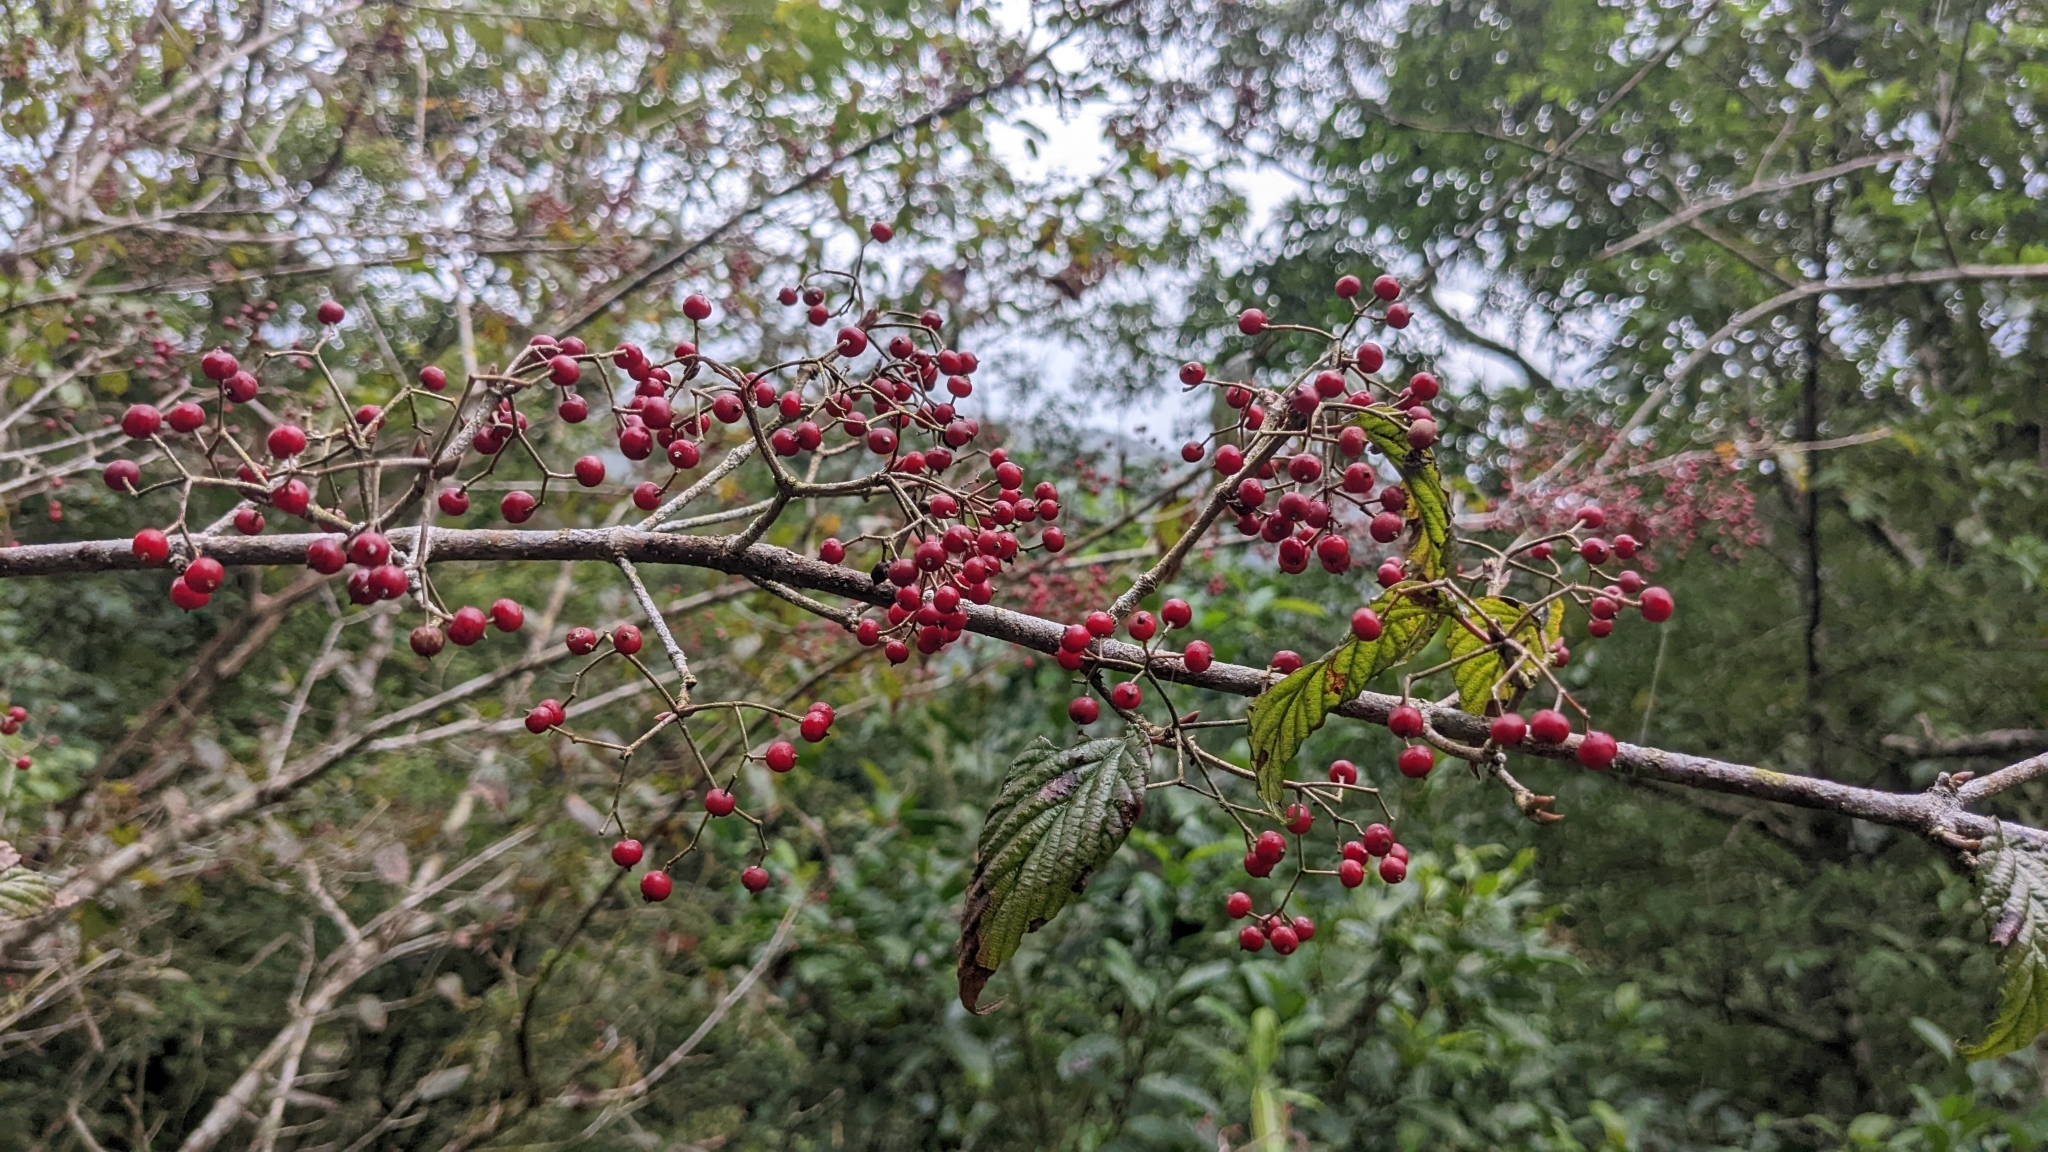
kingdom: Plantae
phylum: Tracheophyta
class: Magnoliopsida
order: Dipsacales
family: Viburnaceae
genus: Viburnum
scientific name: Viburnum luzonicum
